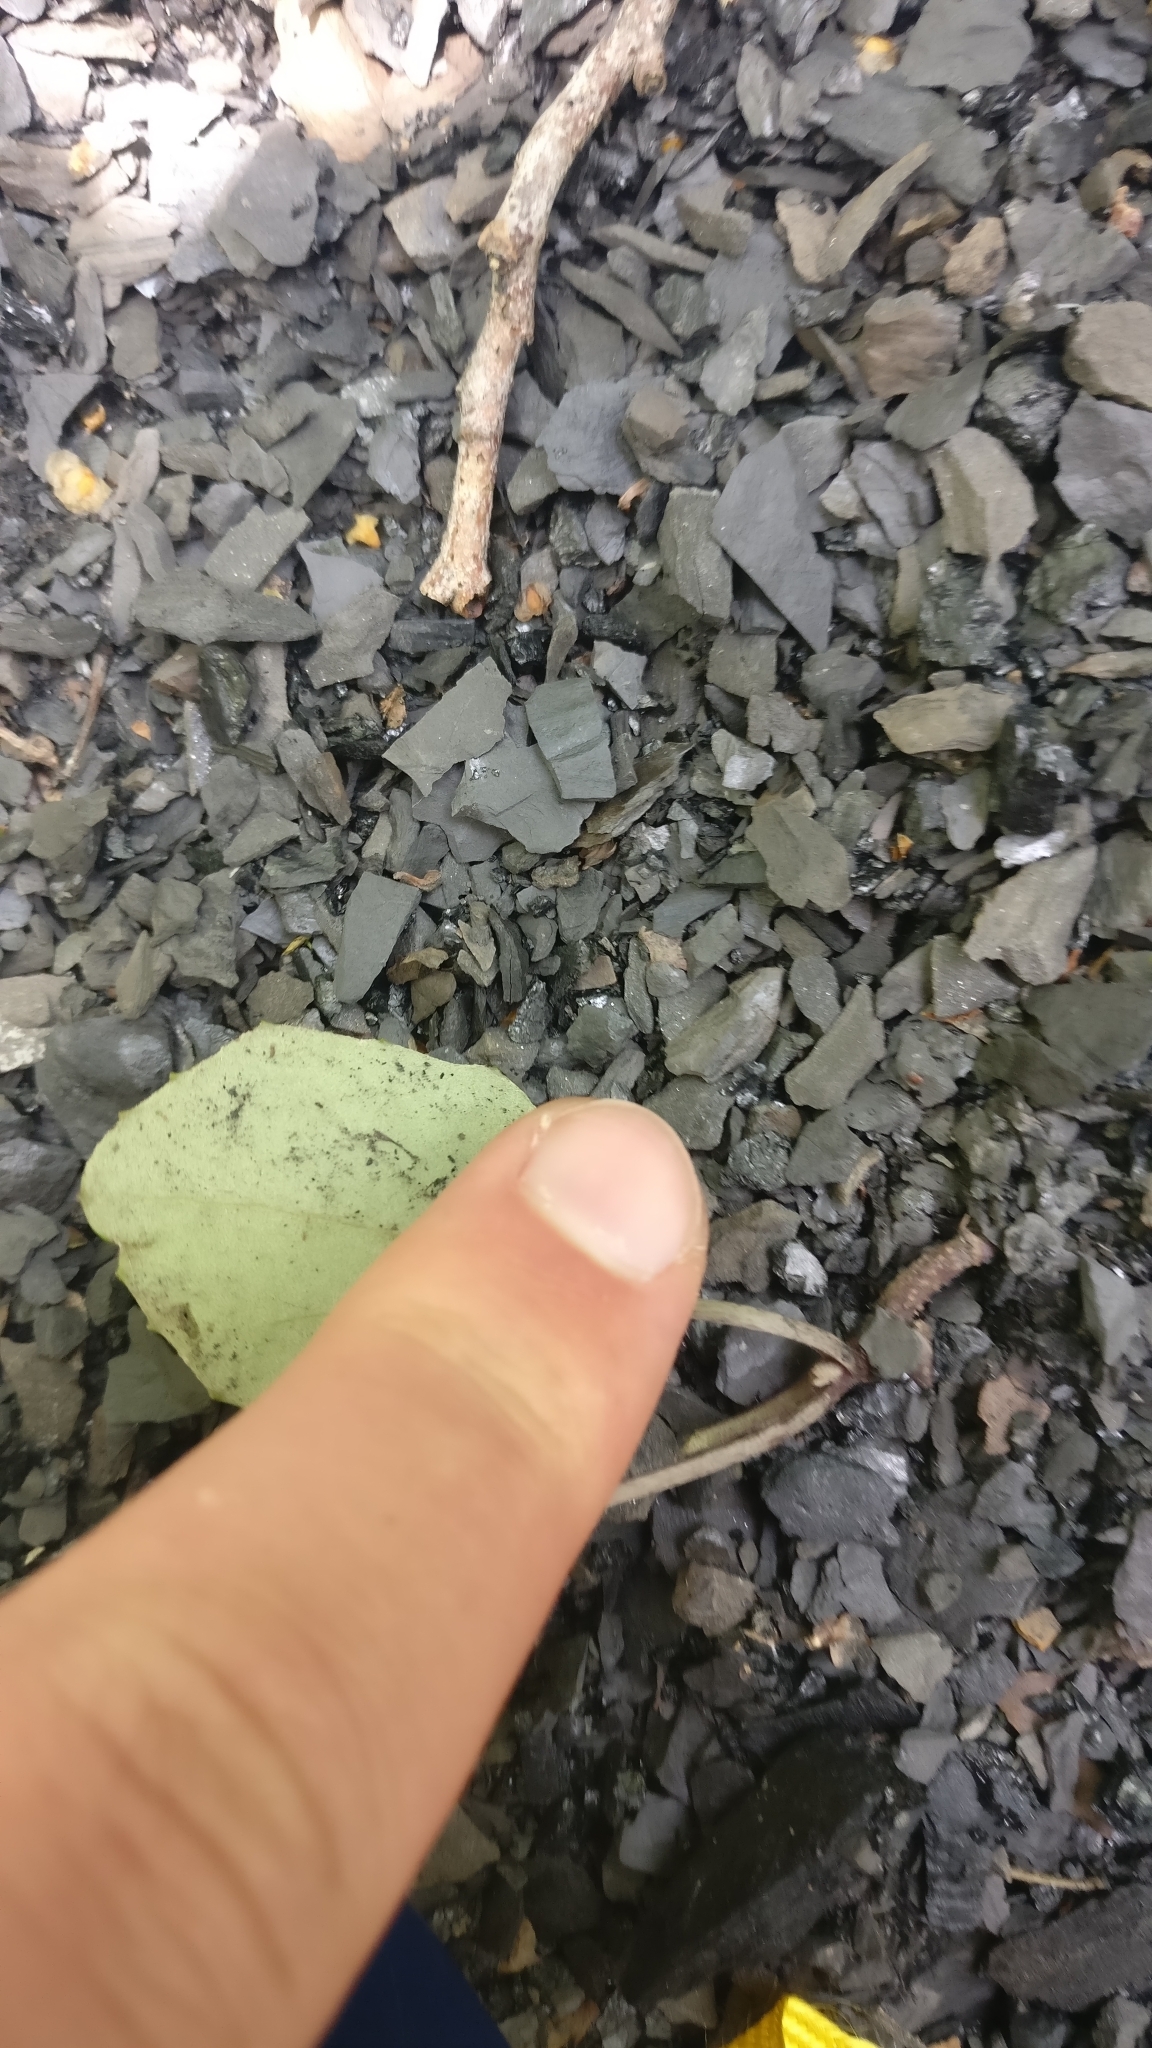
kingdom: Plantae
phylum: Tracheophyta
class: Magnoliopsida
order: Asterales
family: Asteraceae
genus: Tussilago
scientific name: Tussilago farfara
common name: Coltsfoot
